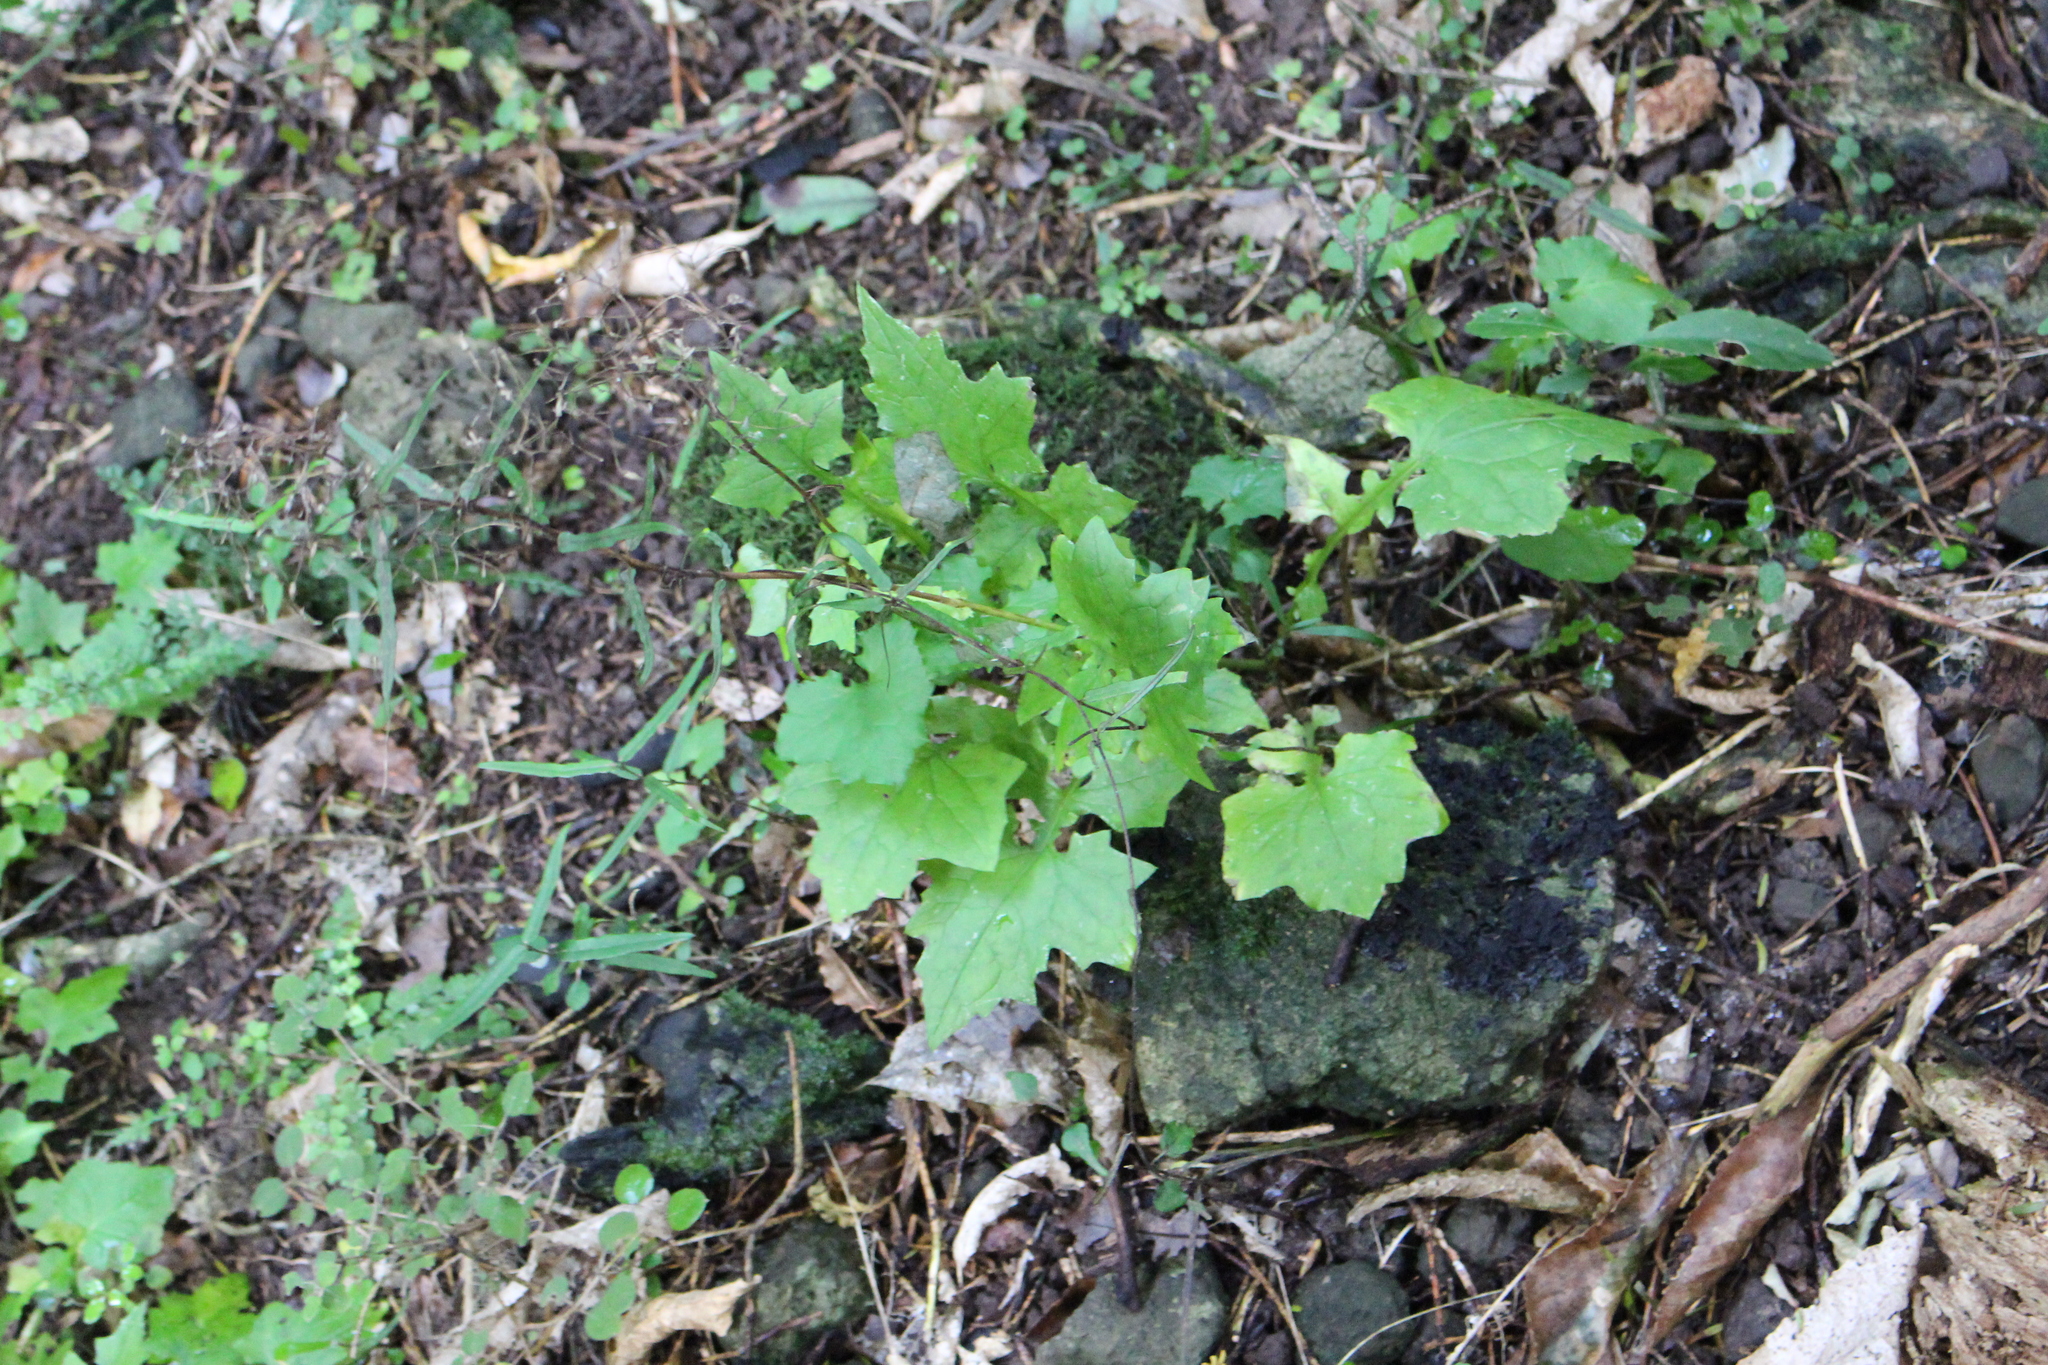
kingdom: Plantae
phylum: Tracheophyta
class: Magnoliopsida
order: Asterales
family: Asteraceae
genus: Mycelis
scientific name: Mycelis muralis
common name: Wall lettuce
